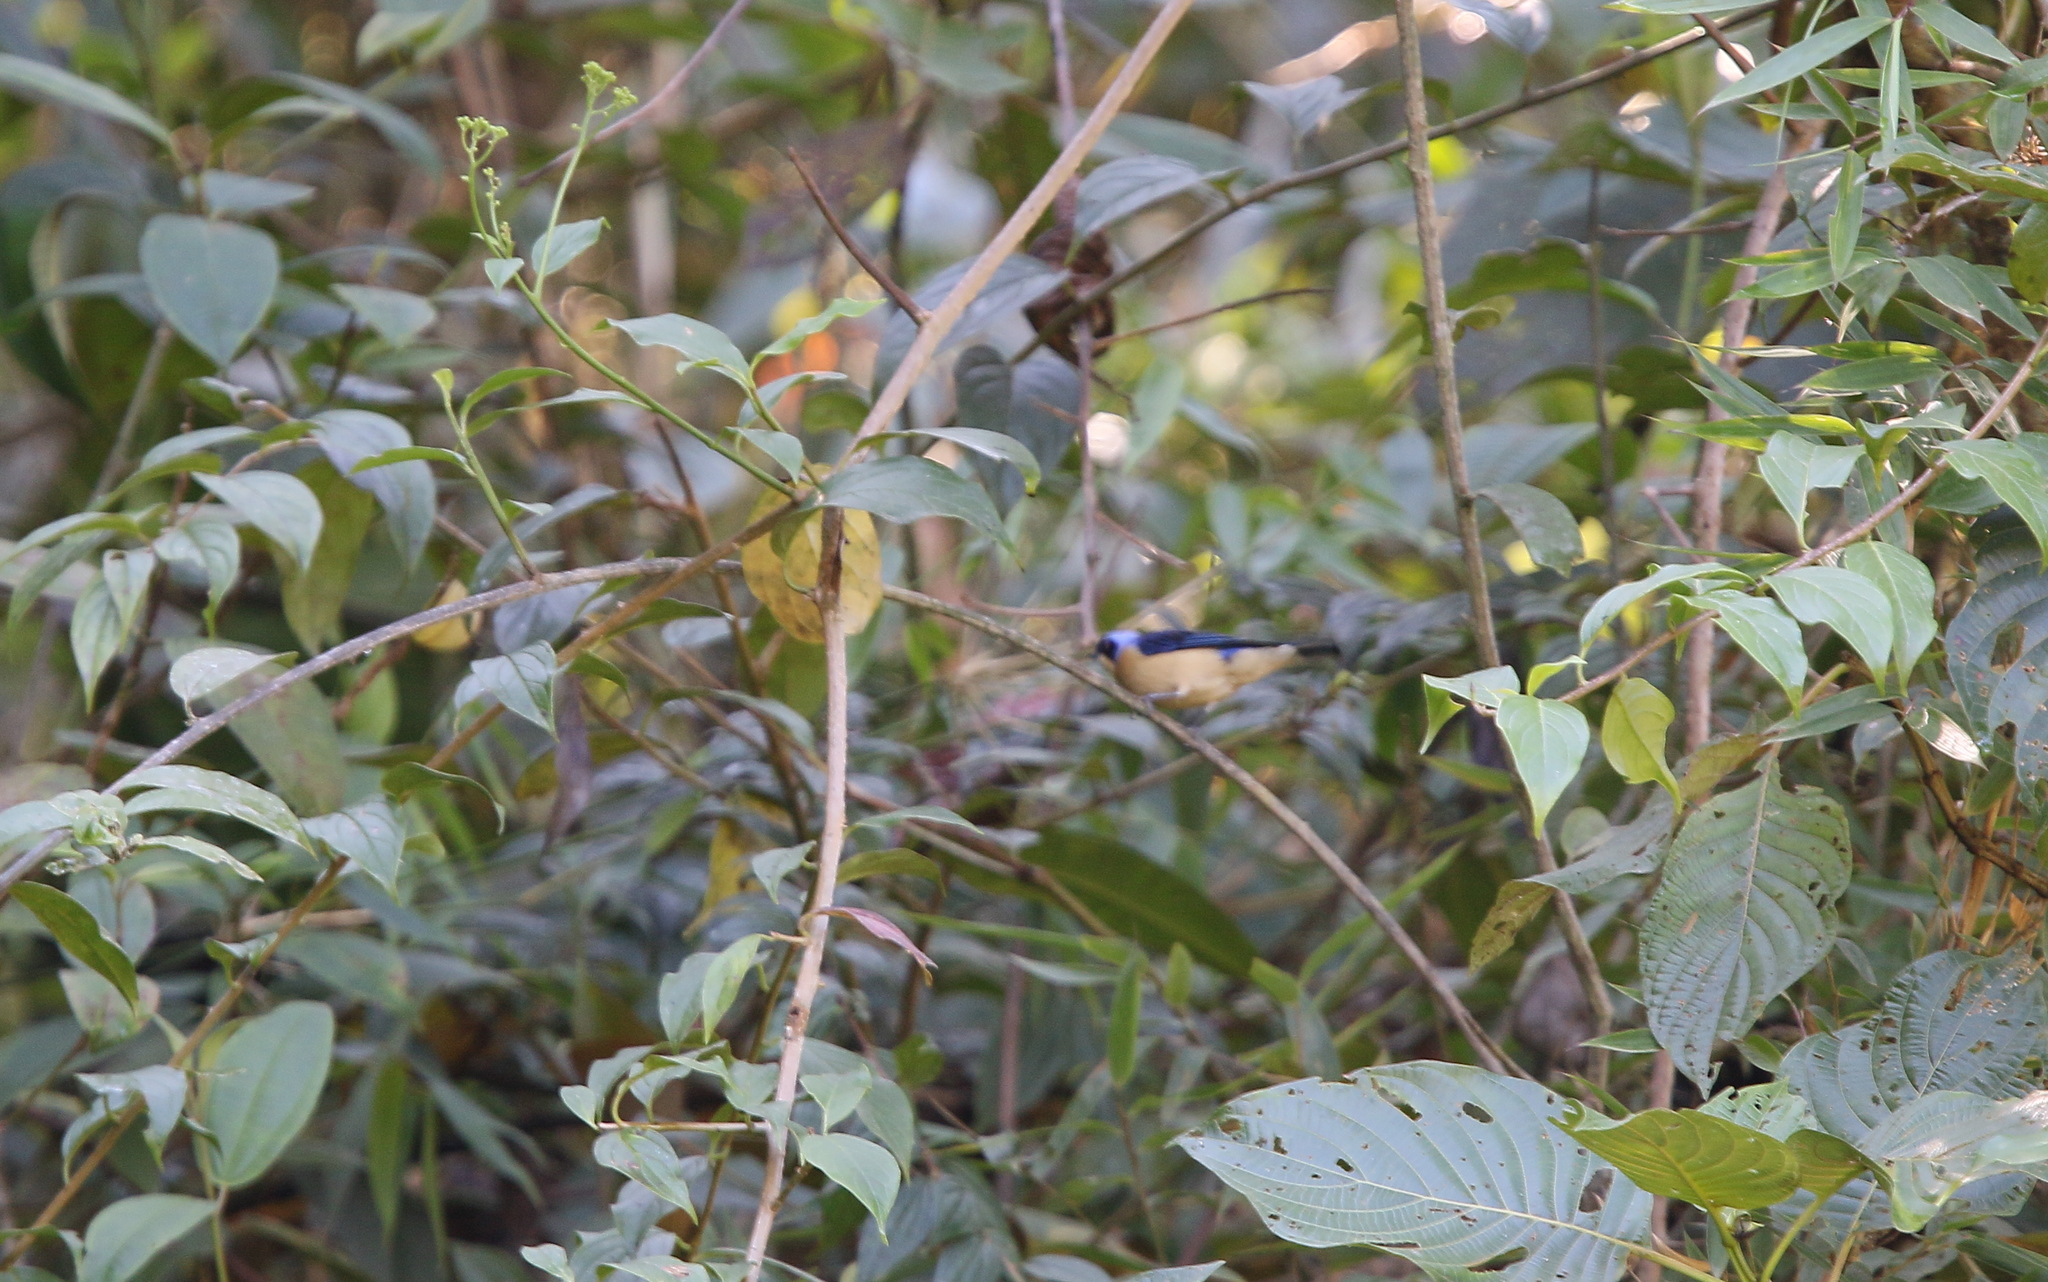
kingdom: Animalia
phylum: Chordata
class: Aves
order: Passeriformes
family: Thraupidae
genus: Pipraeidea
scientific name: Pipraeidea melanonota
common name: Fawn-breasted tanager
